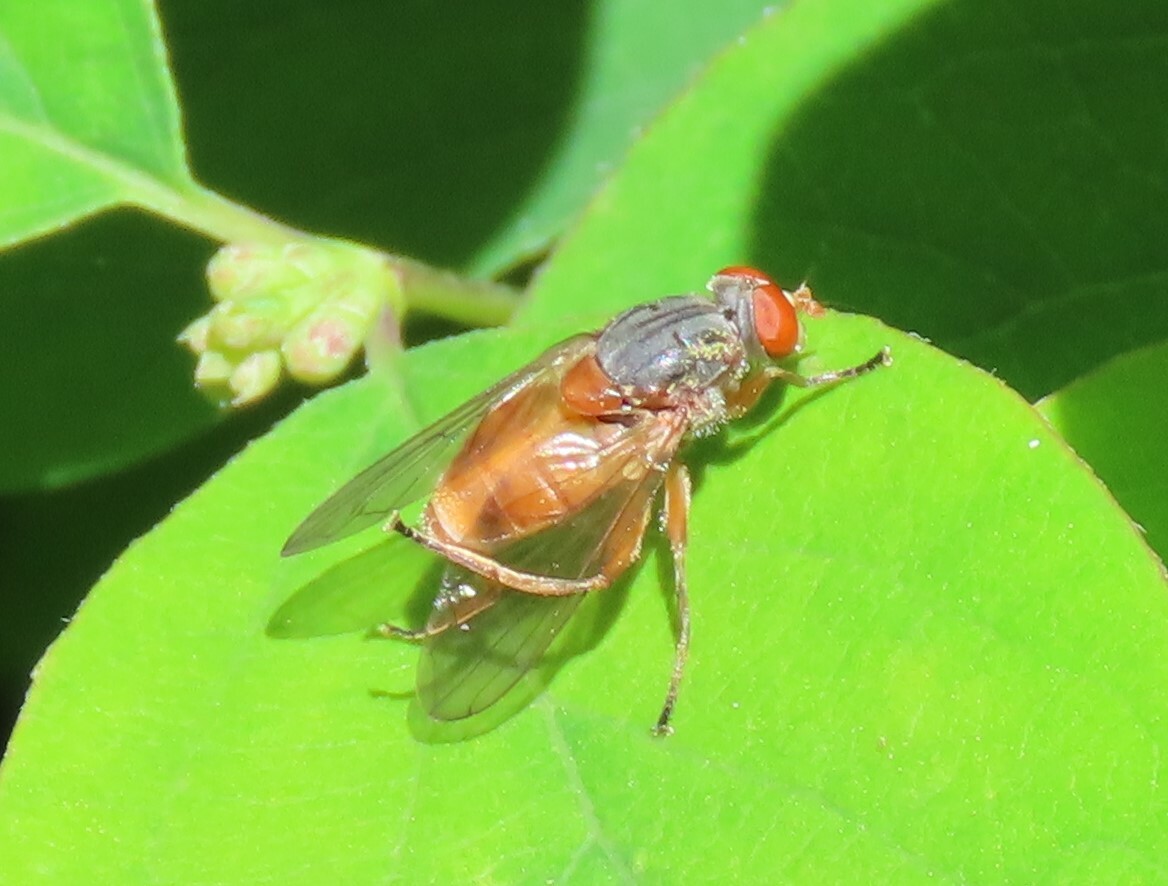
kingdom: Animalia
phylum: Arthropoda
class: Insecta
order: Diptera
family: Syrphidae
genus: Brachyopa
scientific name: Brachyopa scutellaris
